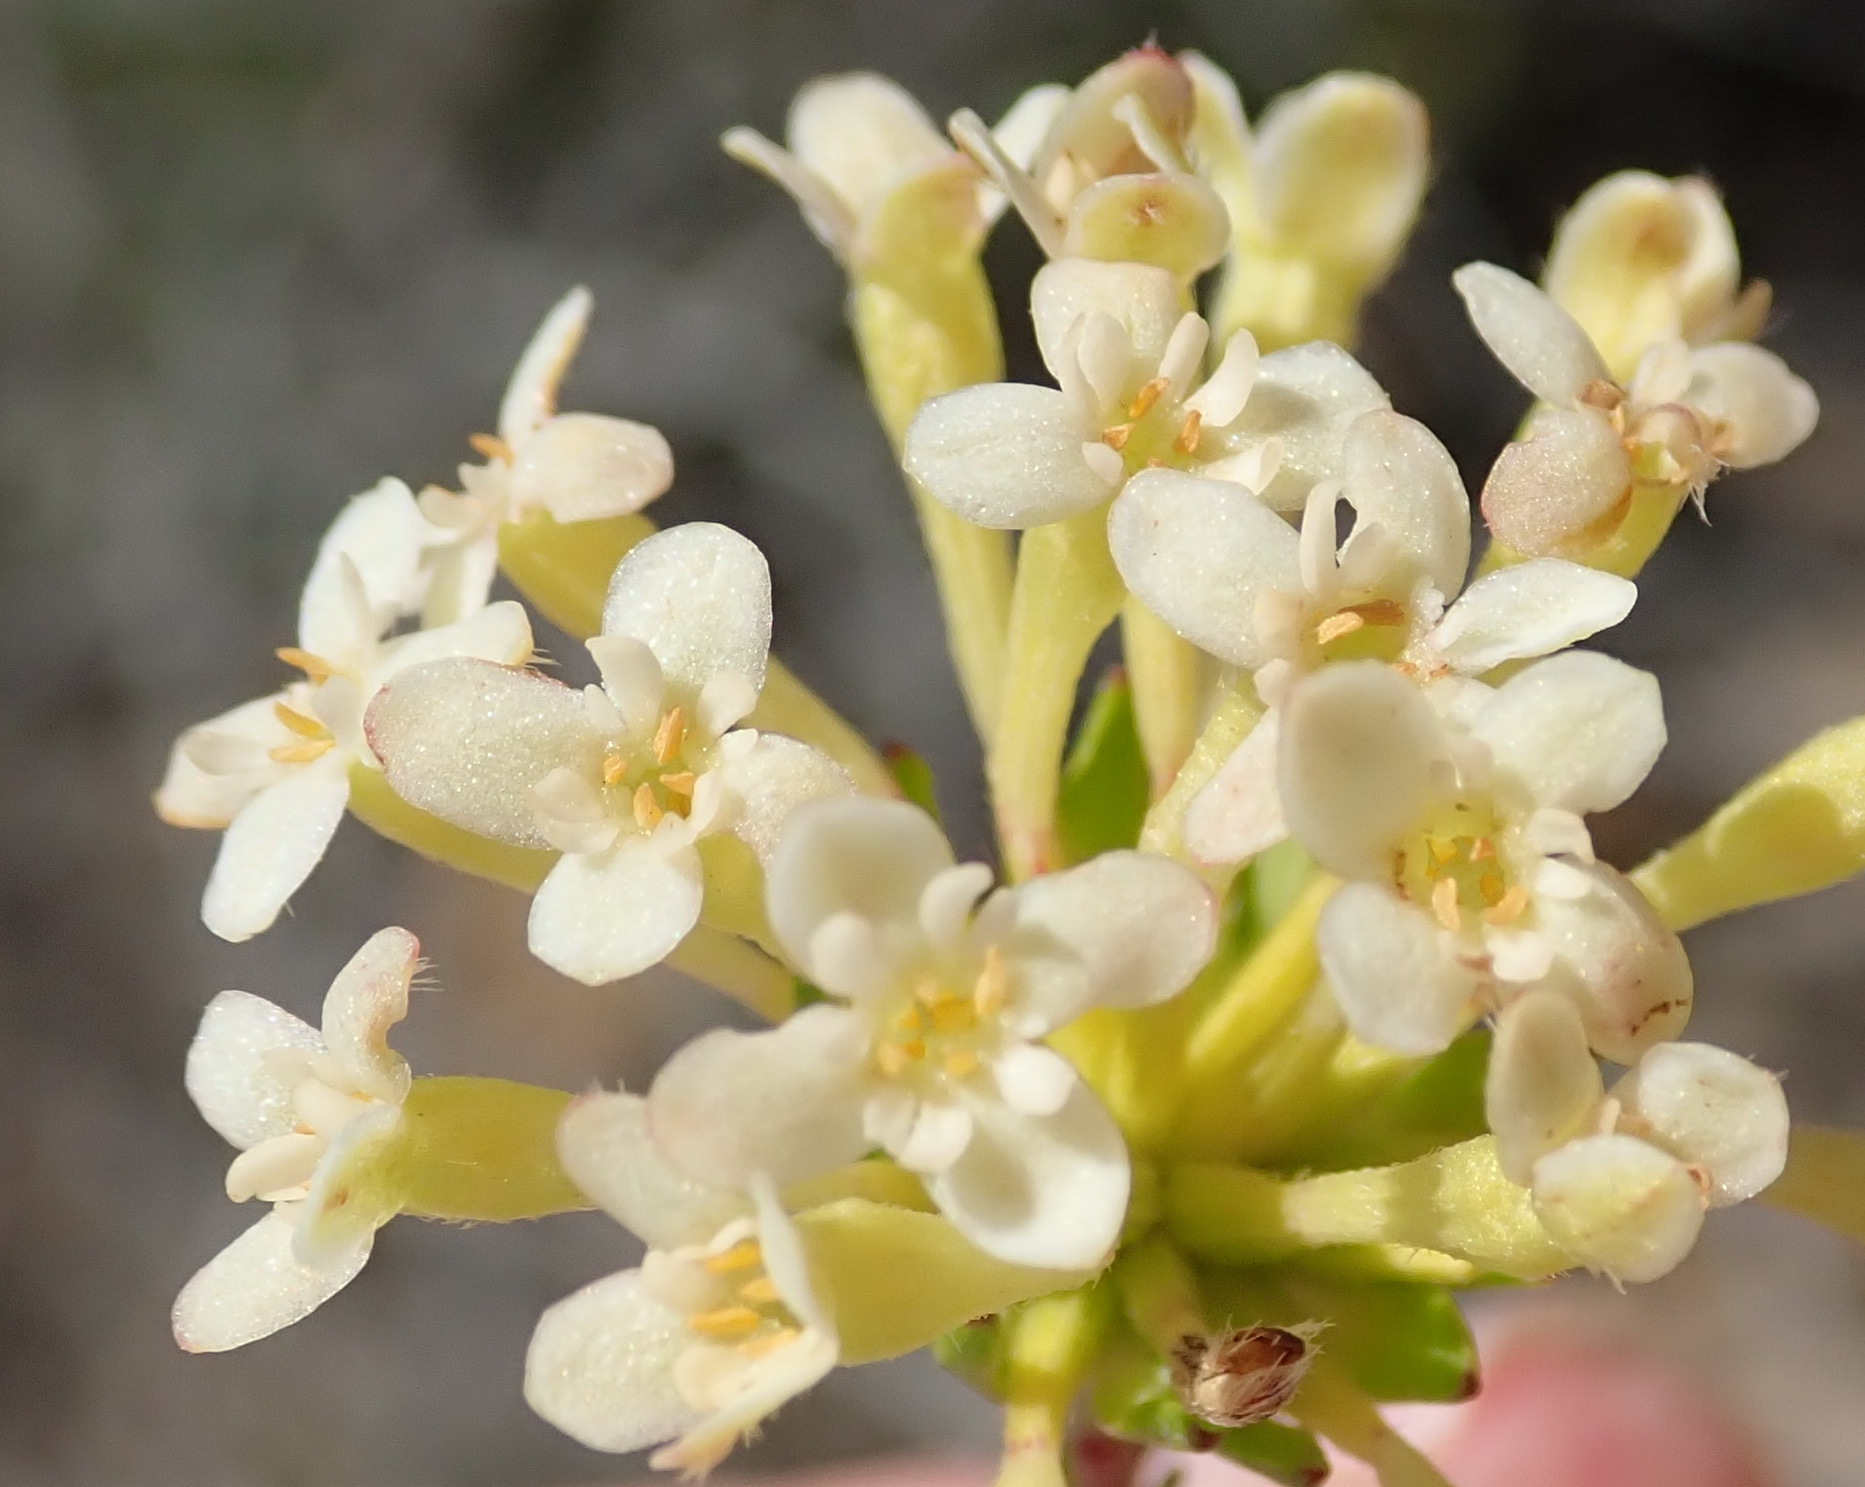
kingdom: Plantae
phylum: Tracheophyta
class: Magnoliopsida
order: Malvales
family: Thymelaeaceae
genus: Gnidia
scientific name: Gnidia squarrosa
